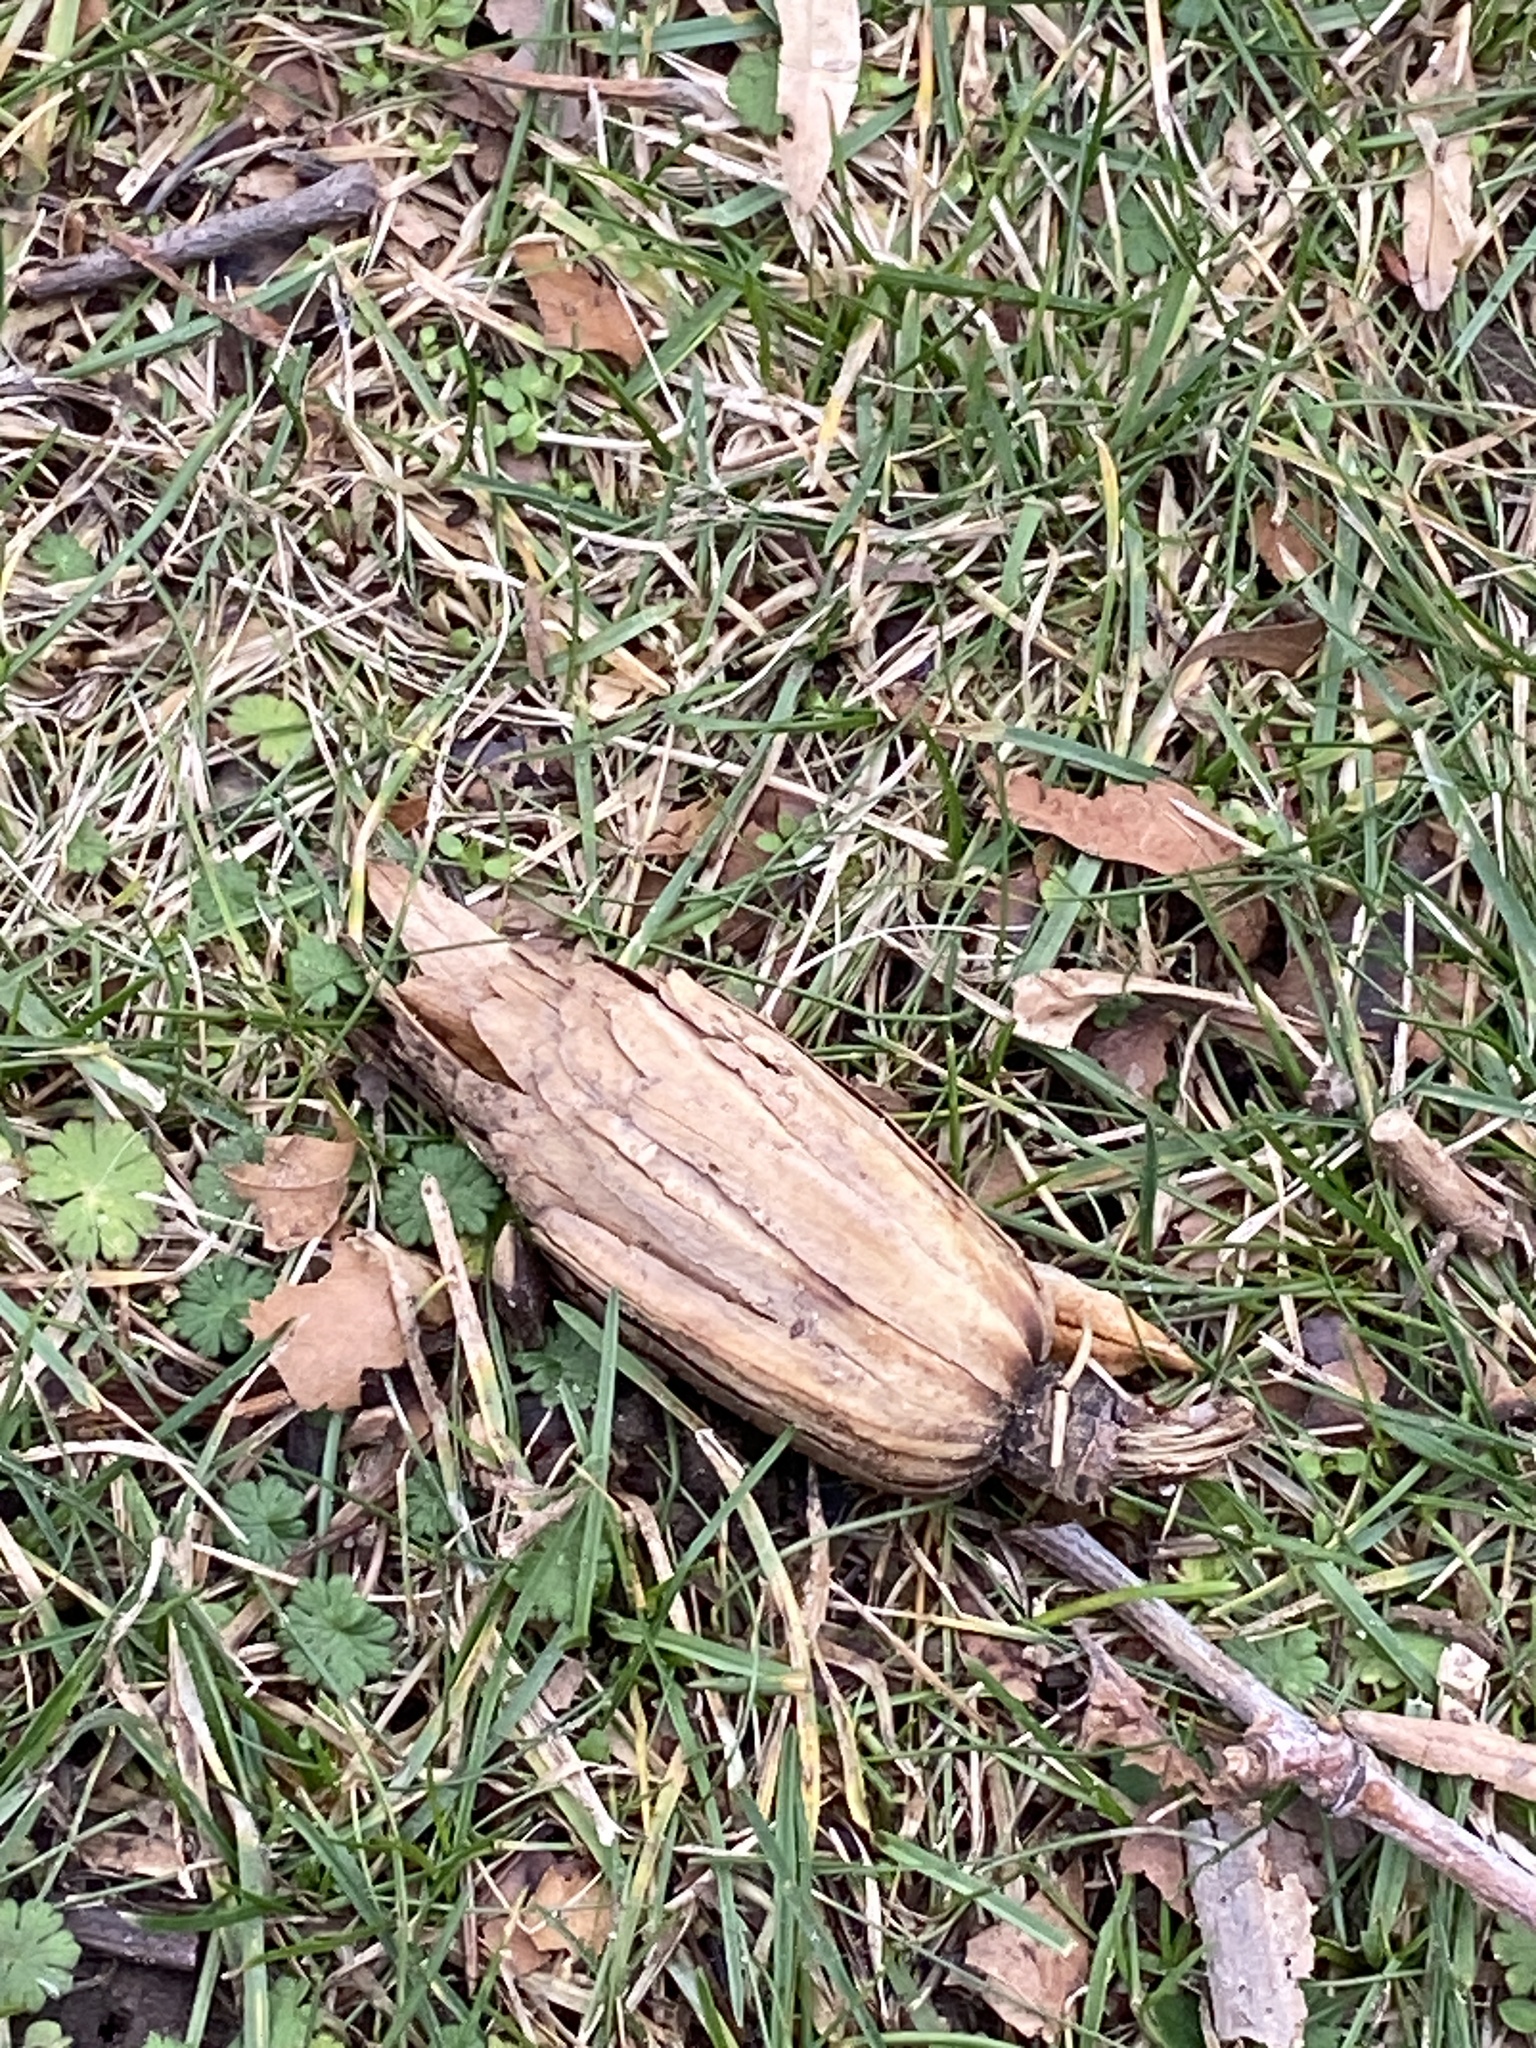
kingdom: Plantae
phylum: Tracheophyta
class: Magnoliopsida
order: Magnoliales
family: Magnoliaceae
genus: Liriodendron
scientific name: Liriodendron tulipifera
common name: Tulip tree
